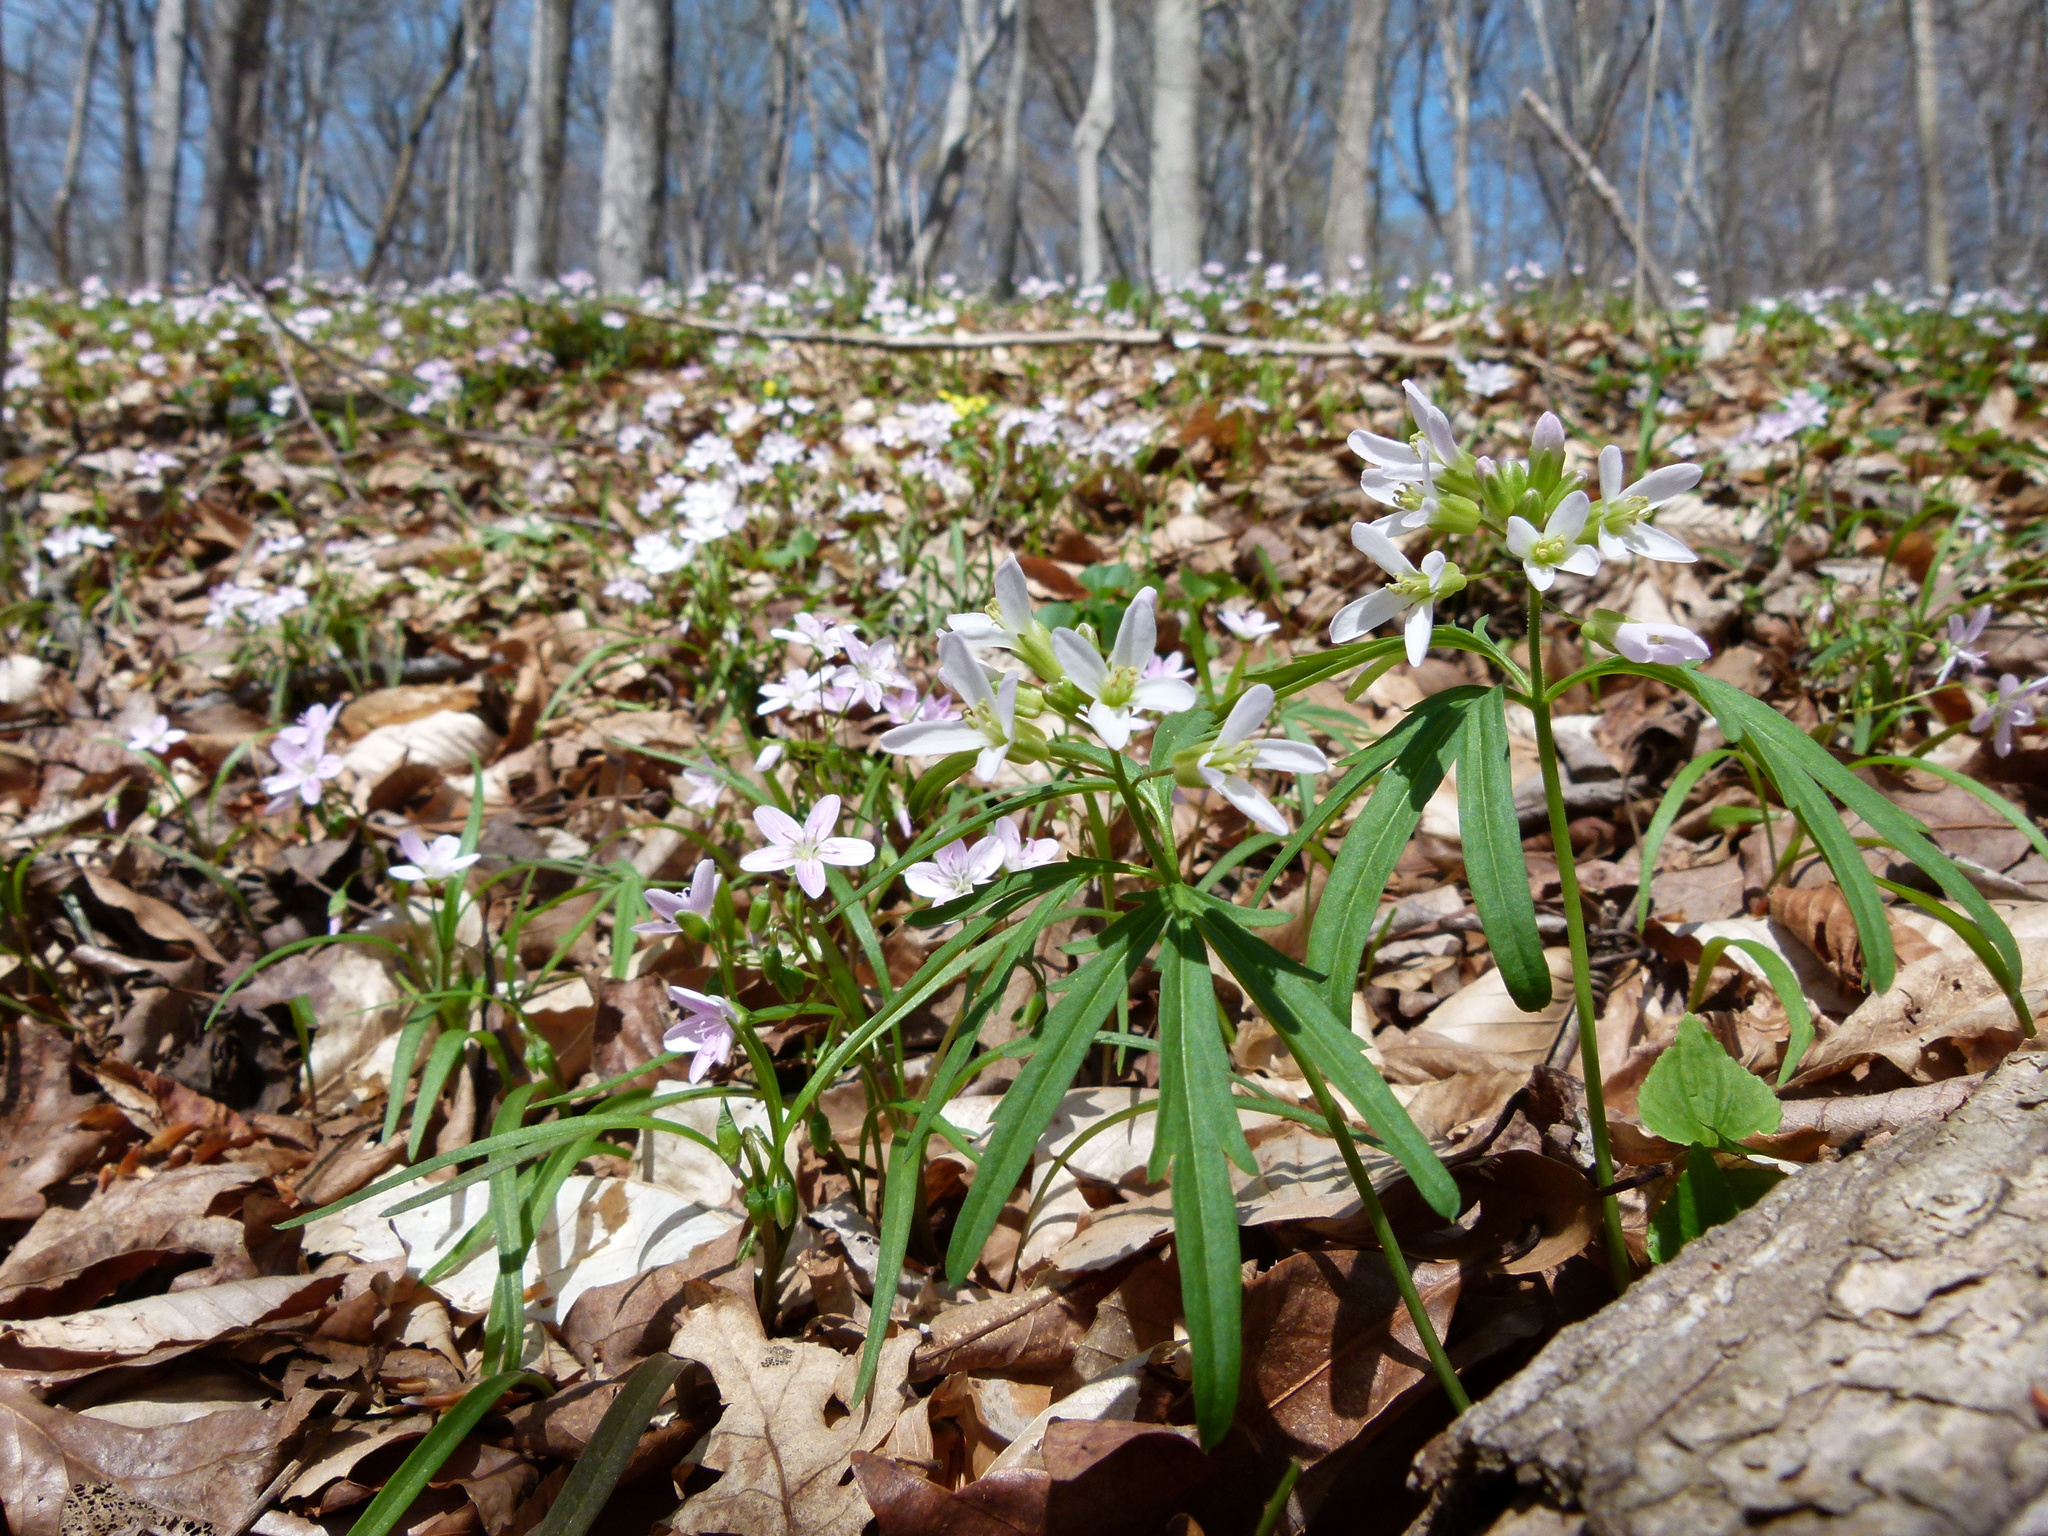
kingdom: Plantae
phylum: Tracheophyta
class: Magnoliopsida
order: Brassicales
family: Brassicaceae
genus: Cardamine
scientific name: Cardamine concatenata
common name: Cut-leaf toothcup
